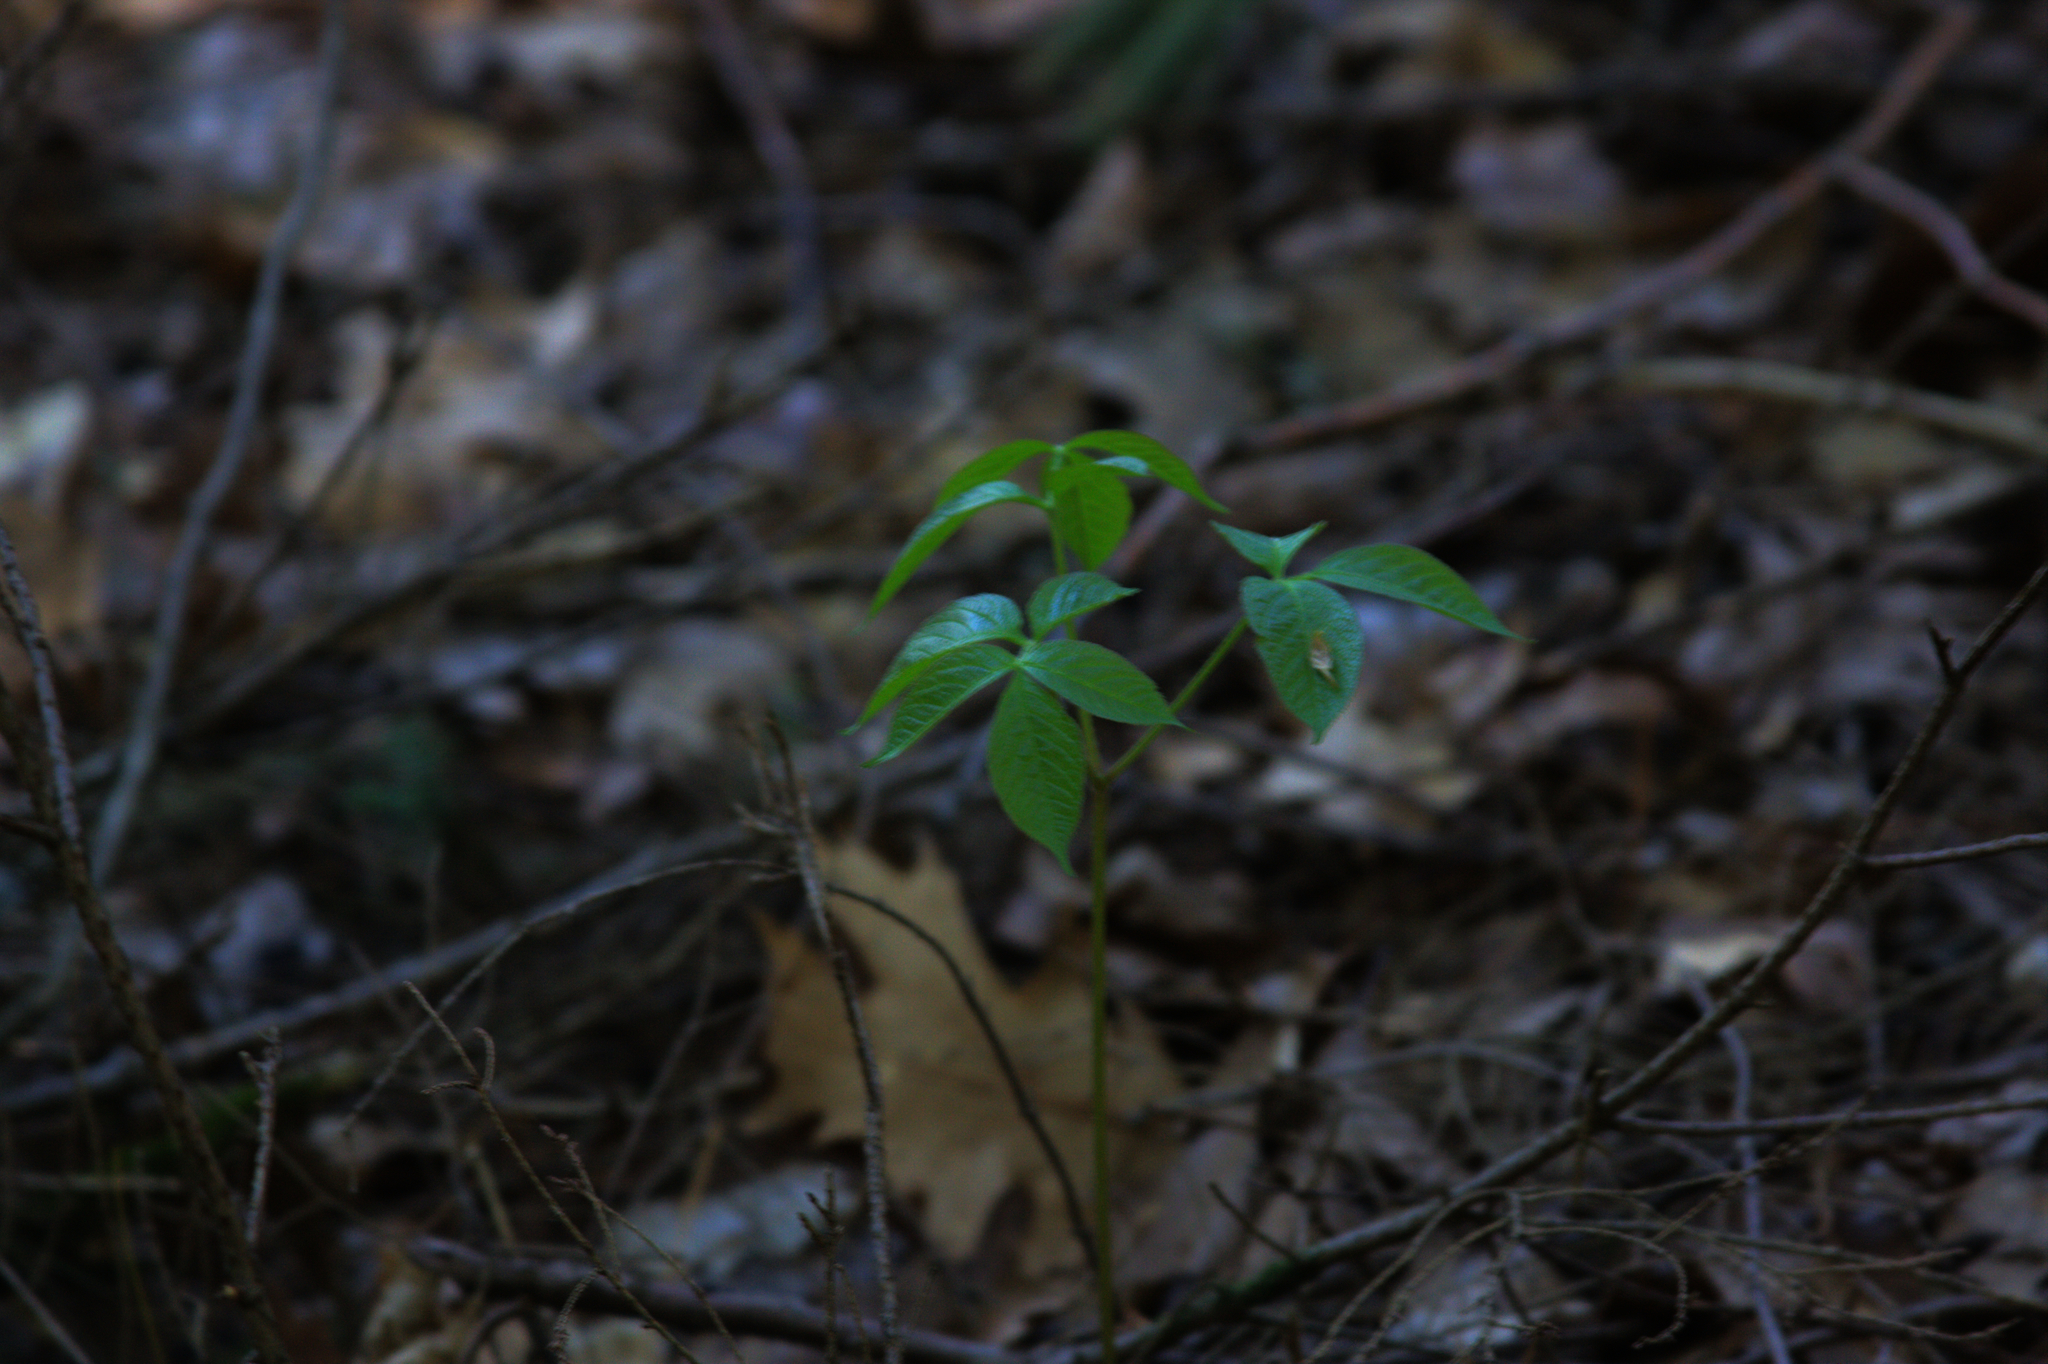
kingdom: Plantae
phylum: Tracheophyta
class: Magnoliopsida
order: Apiales
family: Araliaceae
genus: Aralia
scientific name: Aralia nudicaulis
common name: Wild sarsaparilla
